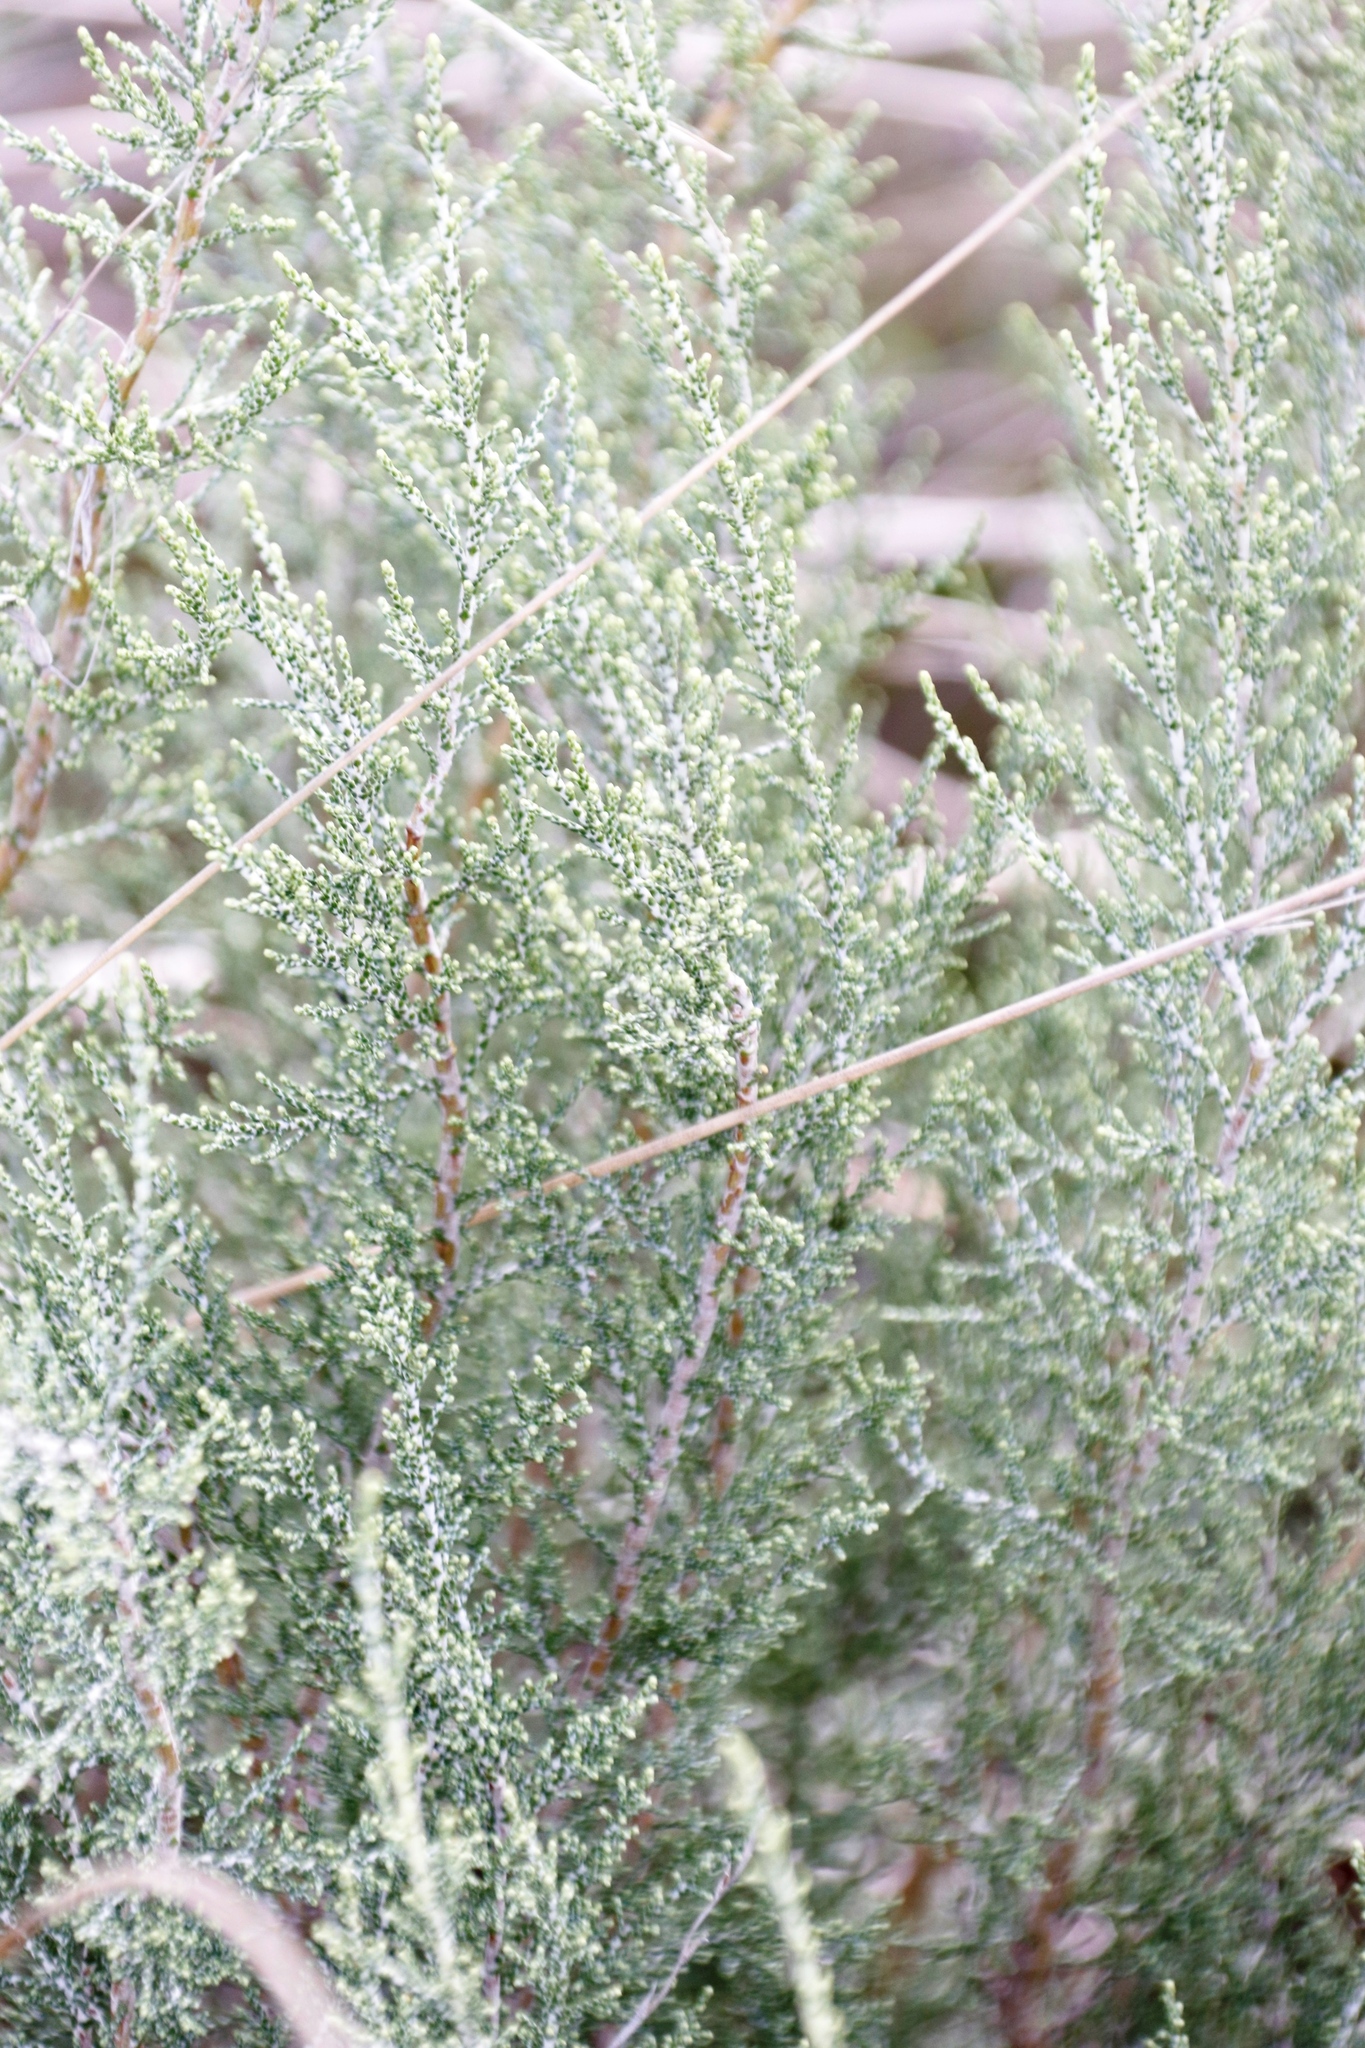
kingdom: Plantae
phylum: Tracheophyta
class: Magnoliopsida
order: Asterales
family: Asteraceae
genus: Dicerothamnus
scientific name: Dicerothamnus rhinocerotis
